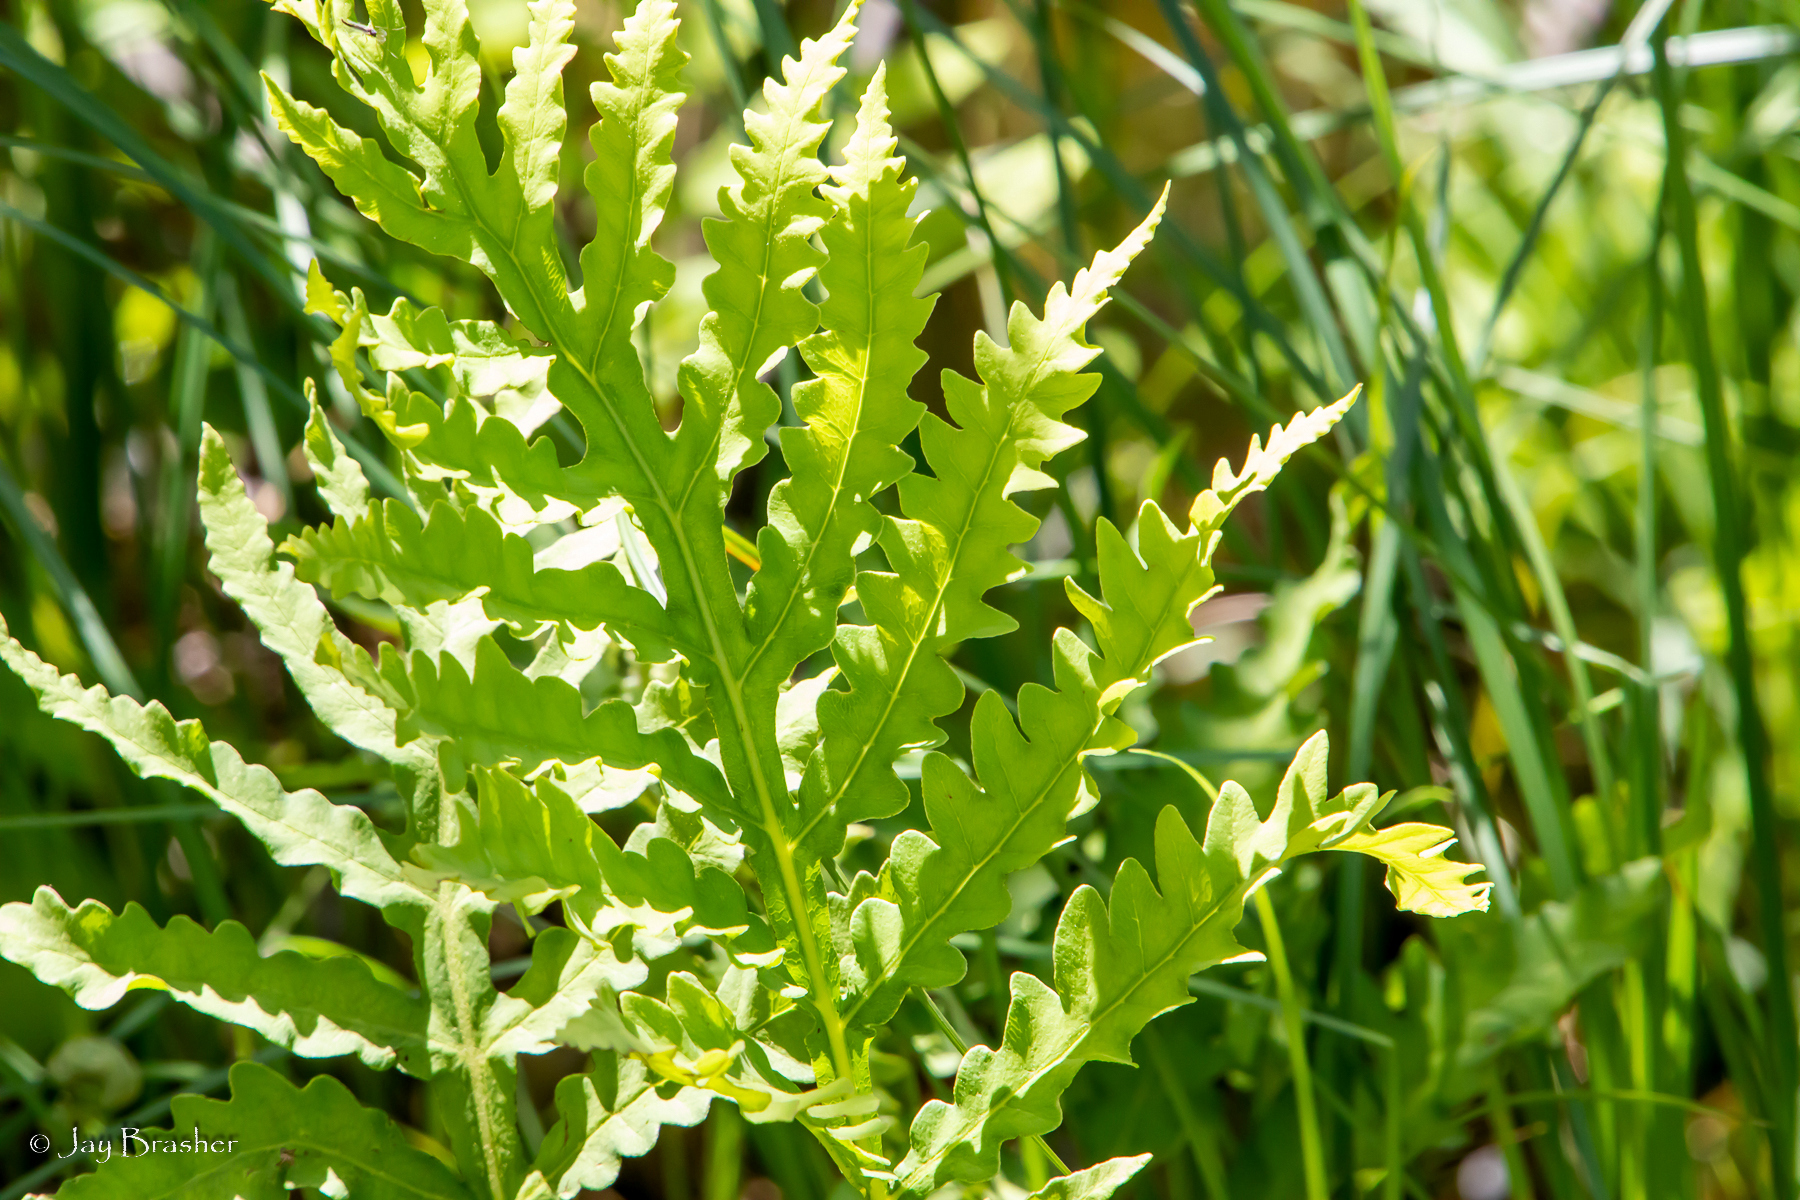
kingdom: Plantae
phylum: Tracheophyta
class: Polypodiopsida
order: Polypodiales
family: Onocleaceae
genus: Onoclea
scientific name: Onoclea sensibilis
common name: Sensitive fern
